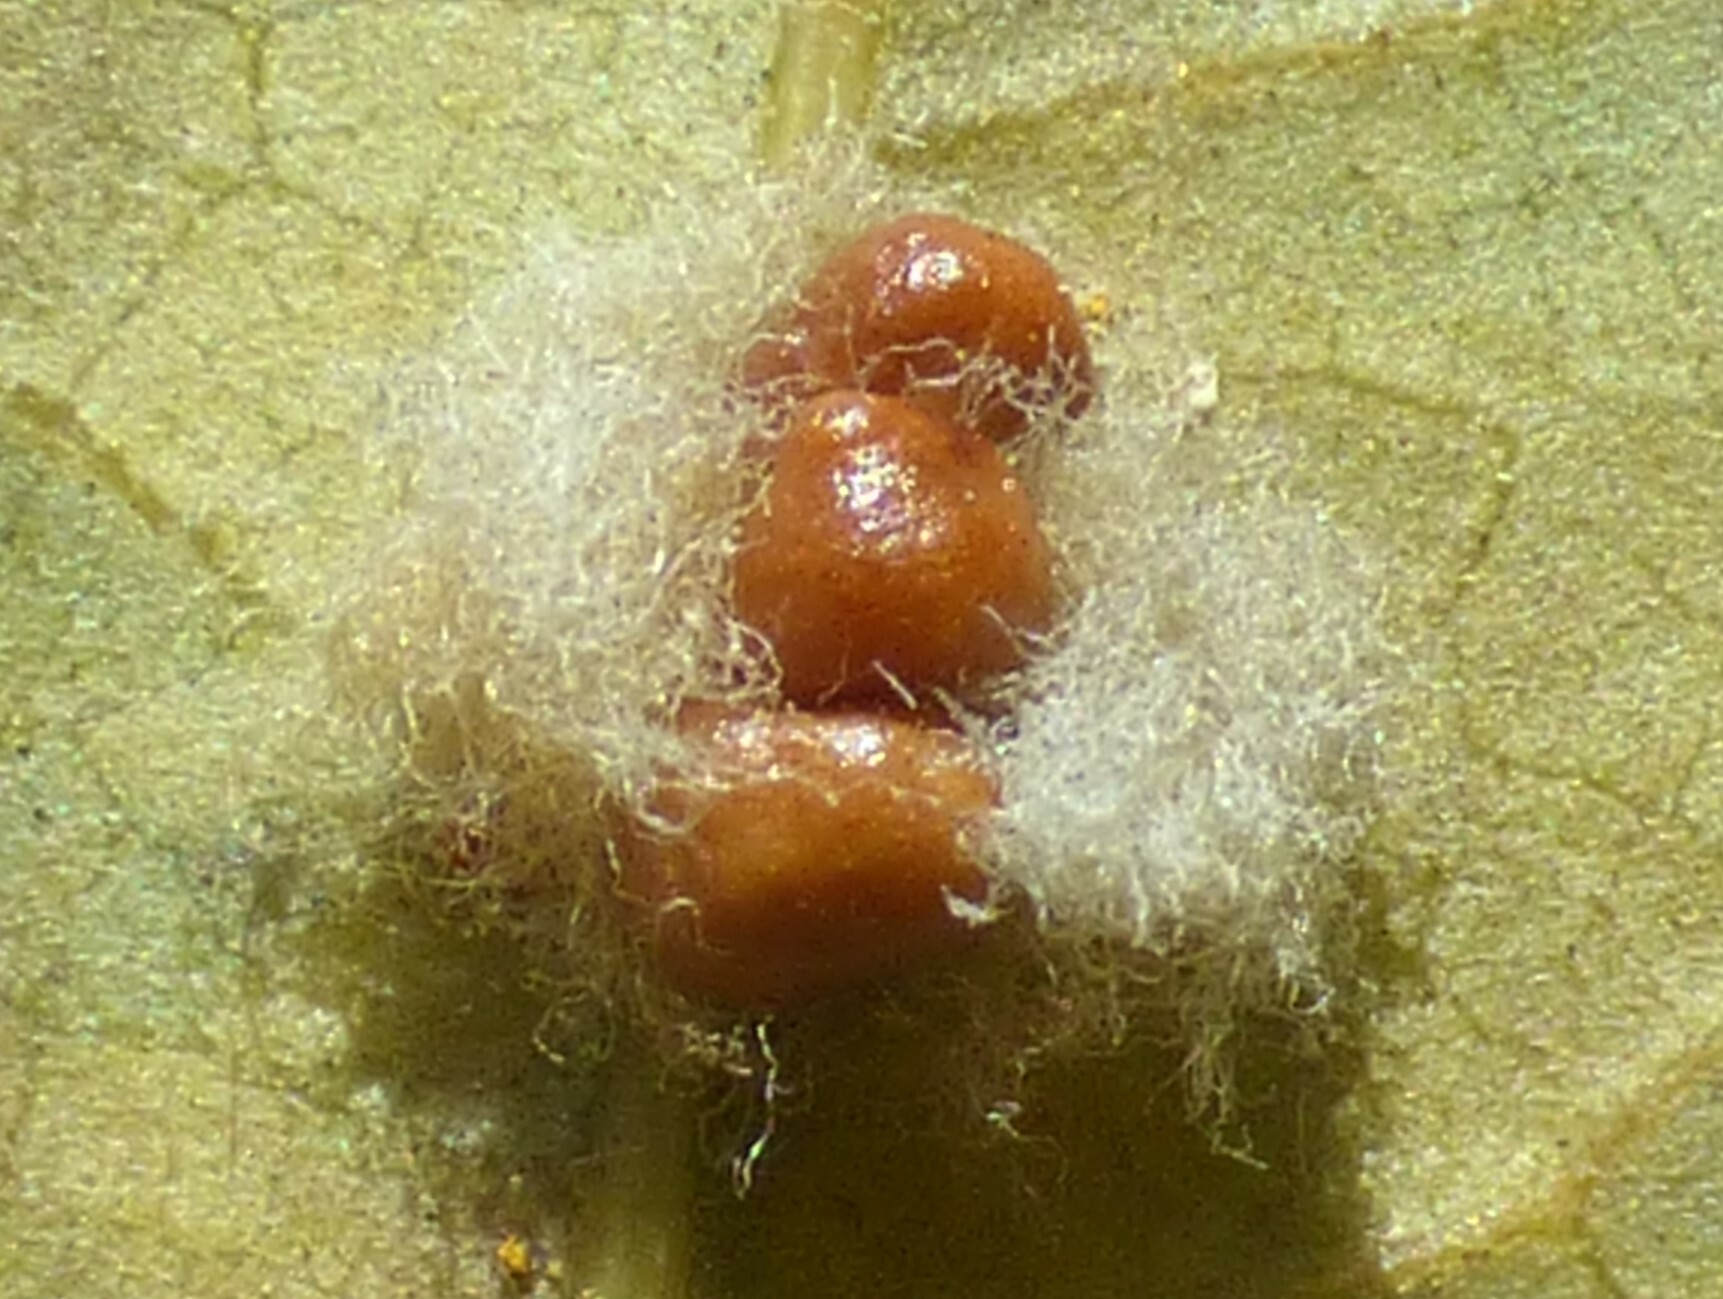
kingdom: Animalia
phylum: Arthropoda
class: Insecta
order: Hymenoptera
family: Cynipidae
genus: Andricus
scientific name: Andricus Druon quercuslanigerum
